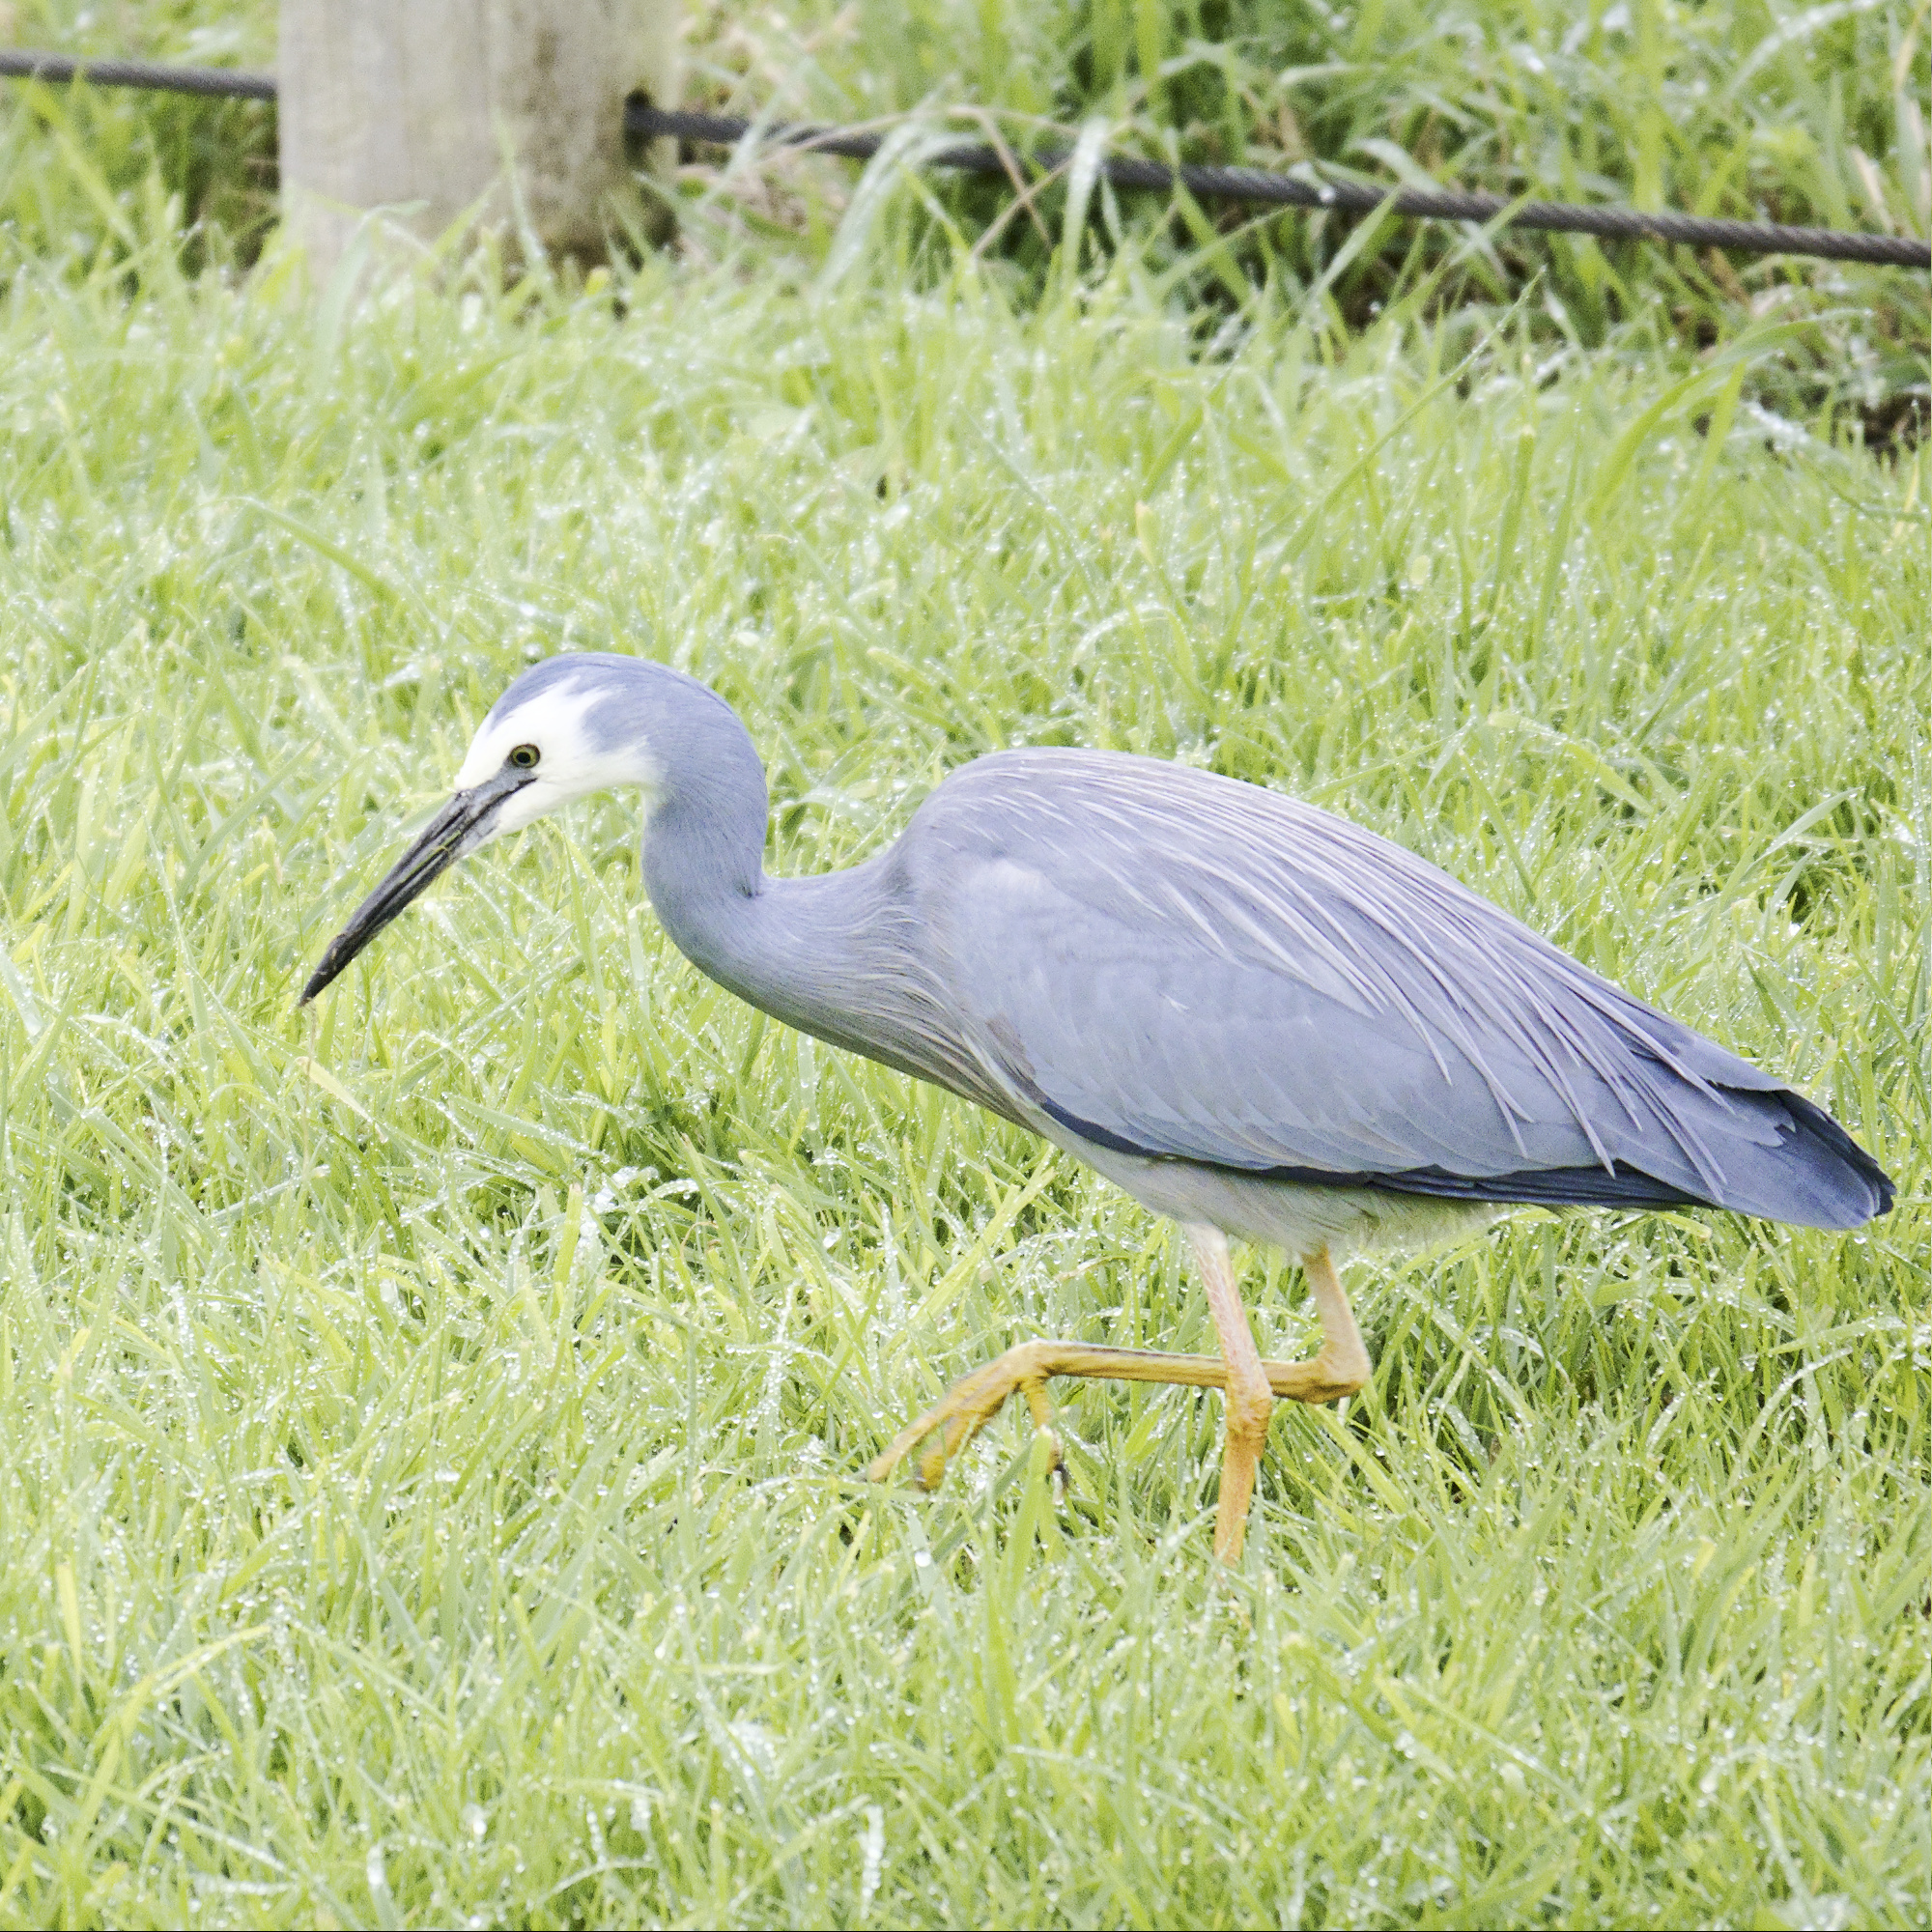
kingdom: Animalia
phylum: Chordata
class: Aves
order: Pelecaniformes
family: Ardeidae
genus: Egretta
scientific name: Egretta novaehollandiae
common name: White-faced heron
